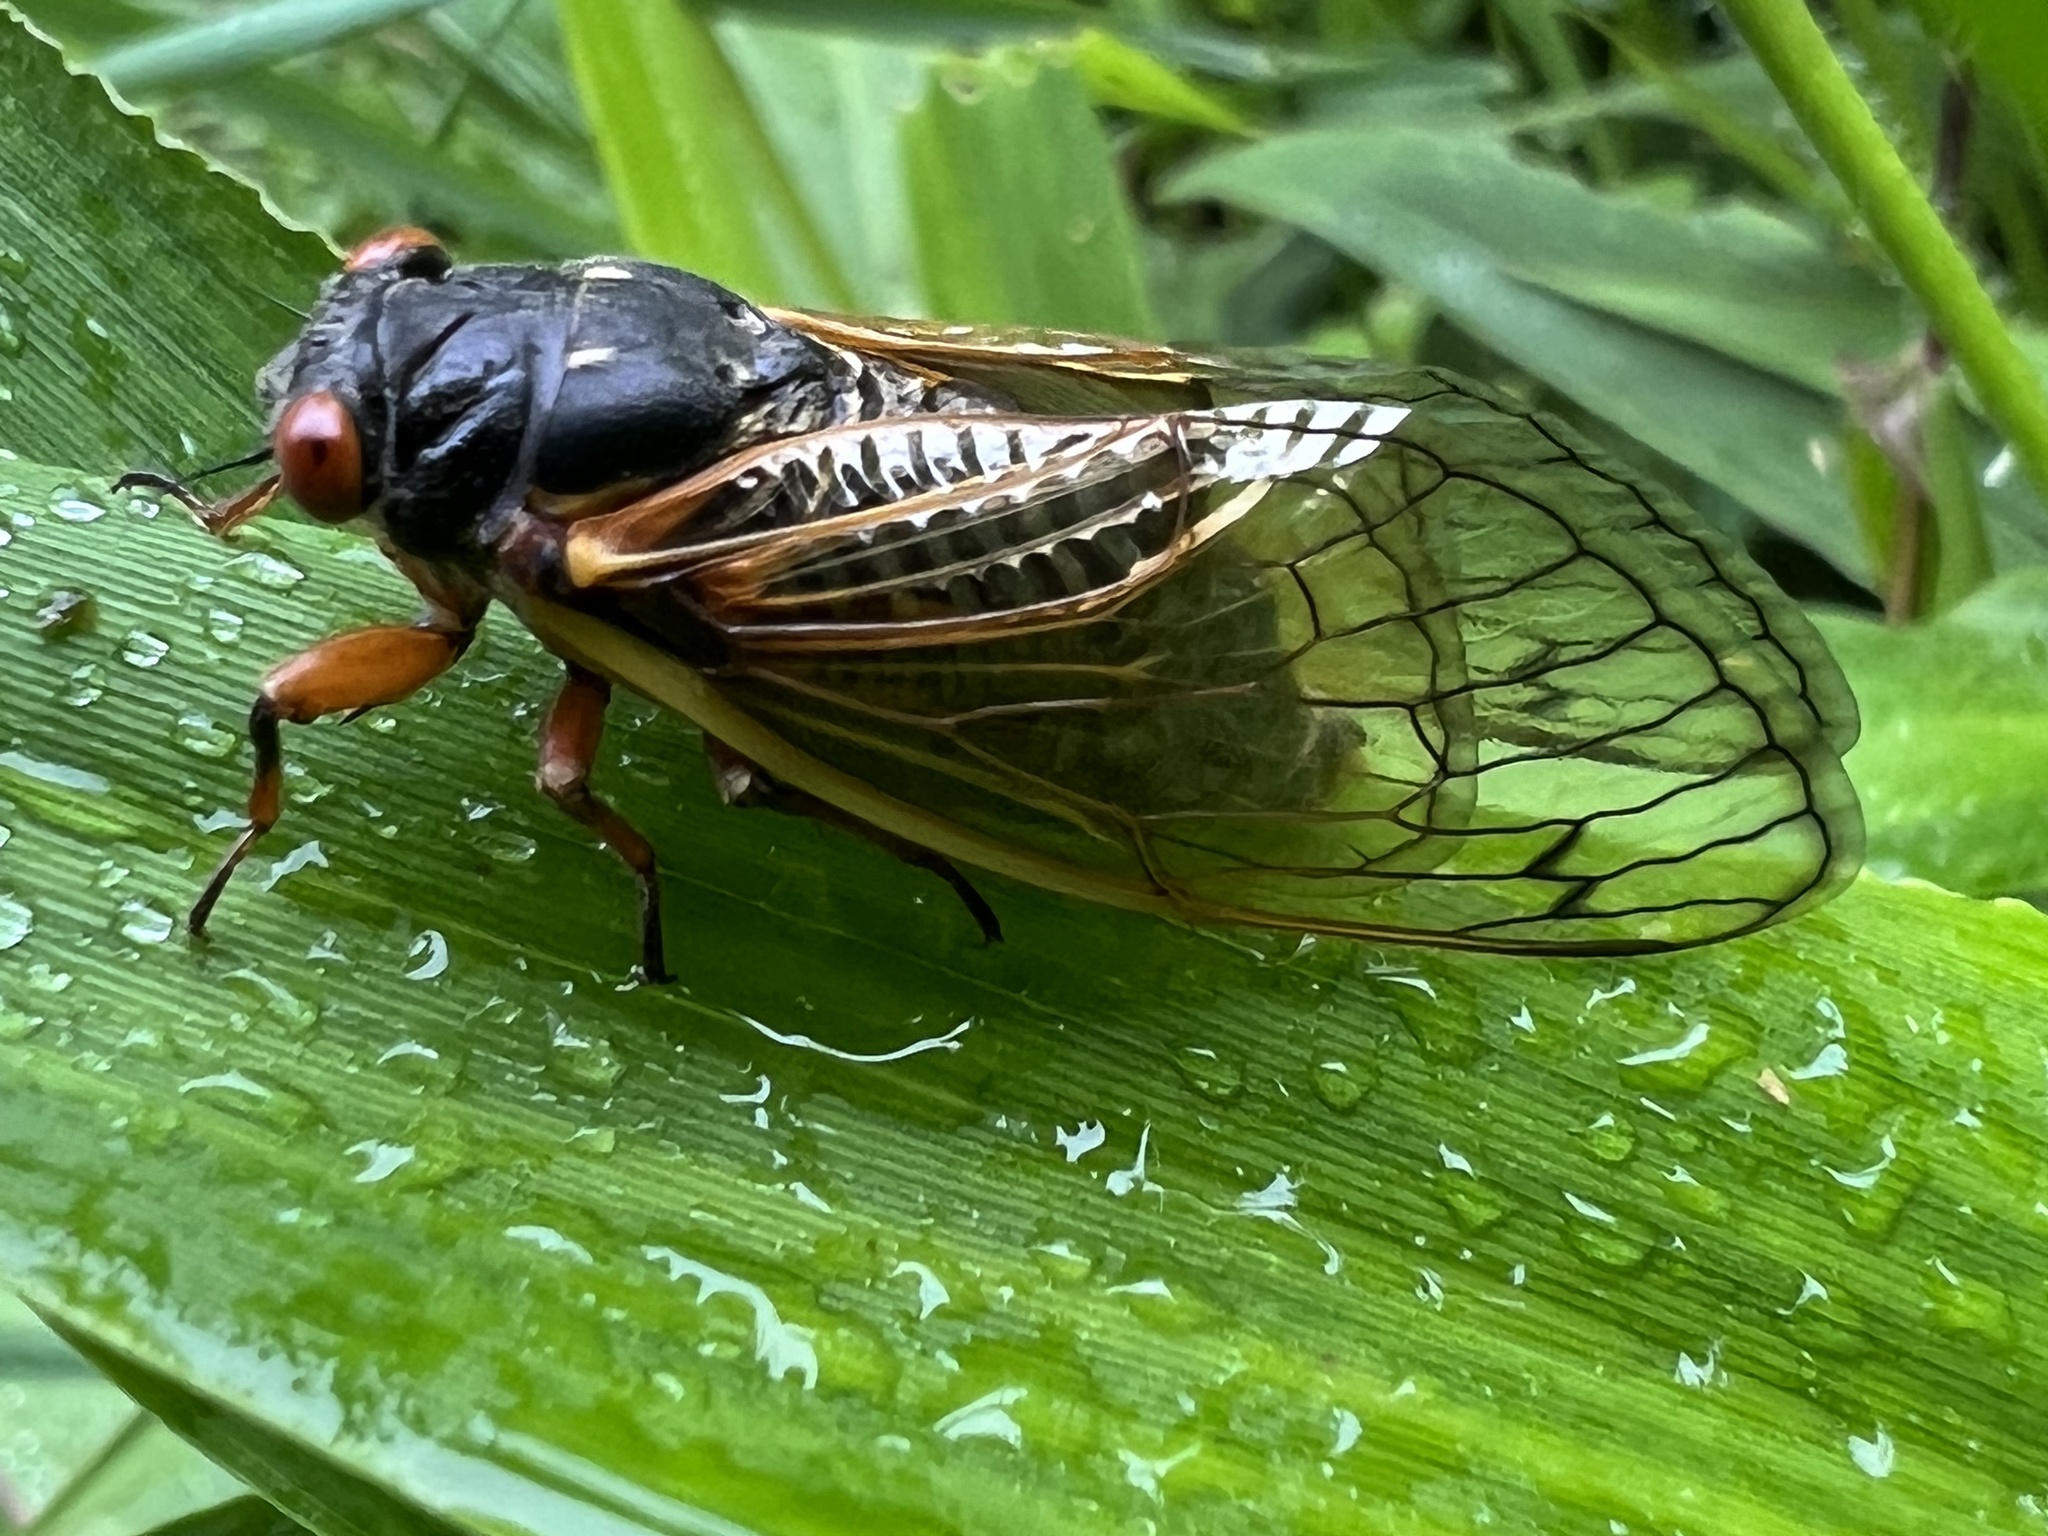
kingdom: Animalia
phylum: Arthropoda
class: Insecta
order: Hemiptera
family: Cicadidae
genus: Magicicada
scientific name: Magicicada
